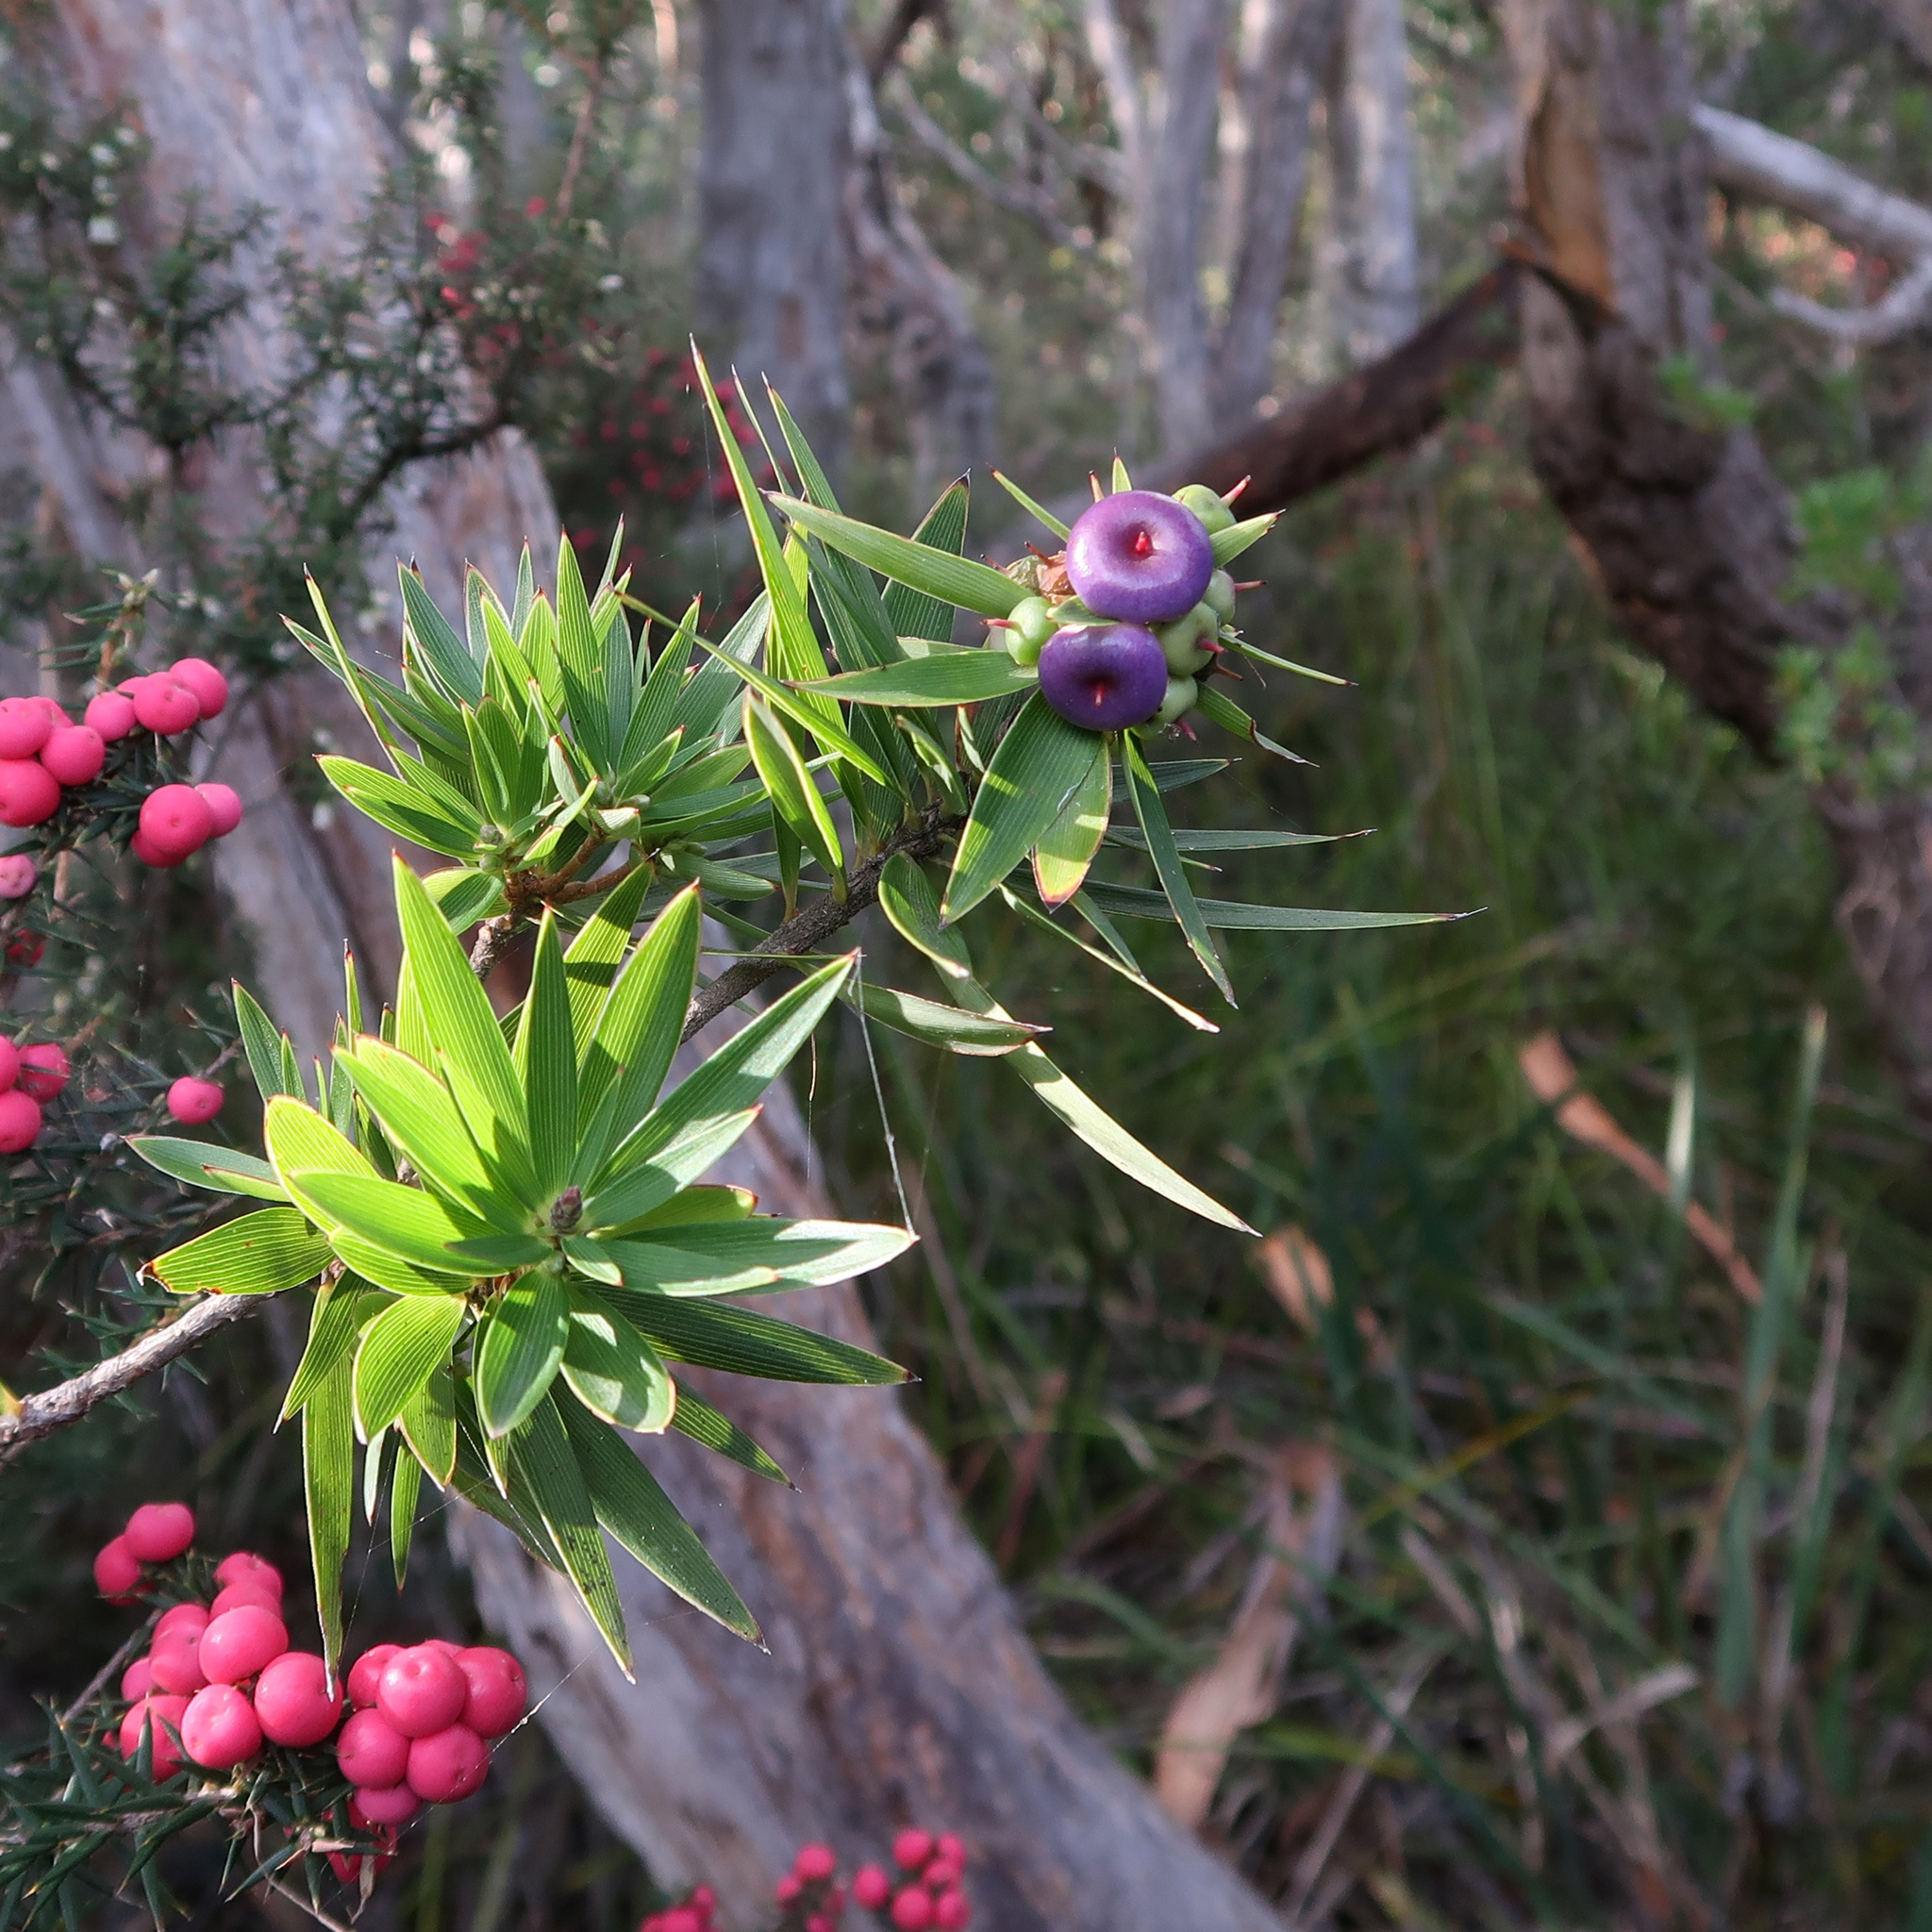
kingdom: Plantae
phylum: Tracheophyta
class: Magnoliopsida
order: Ericales
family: Ericaceae
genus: Cyathodes
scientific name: Cyathodes platystoma
